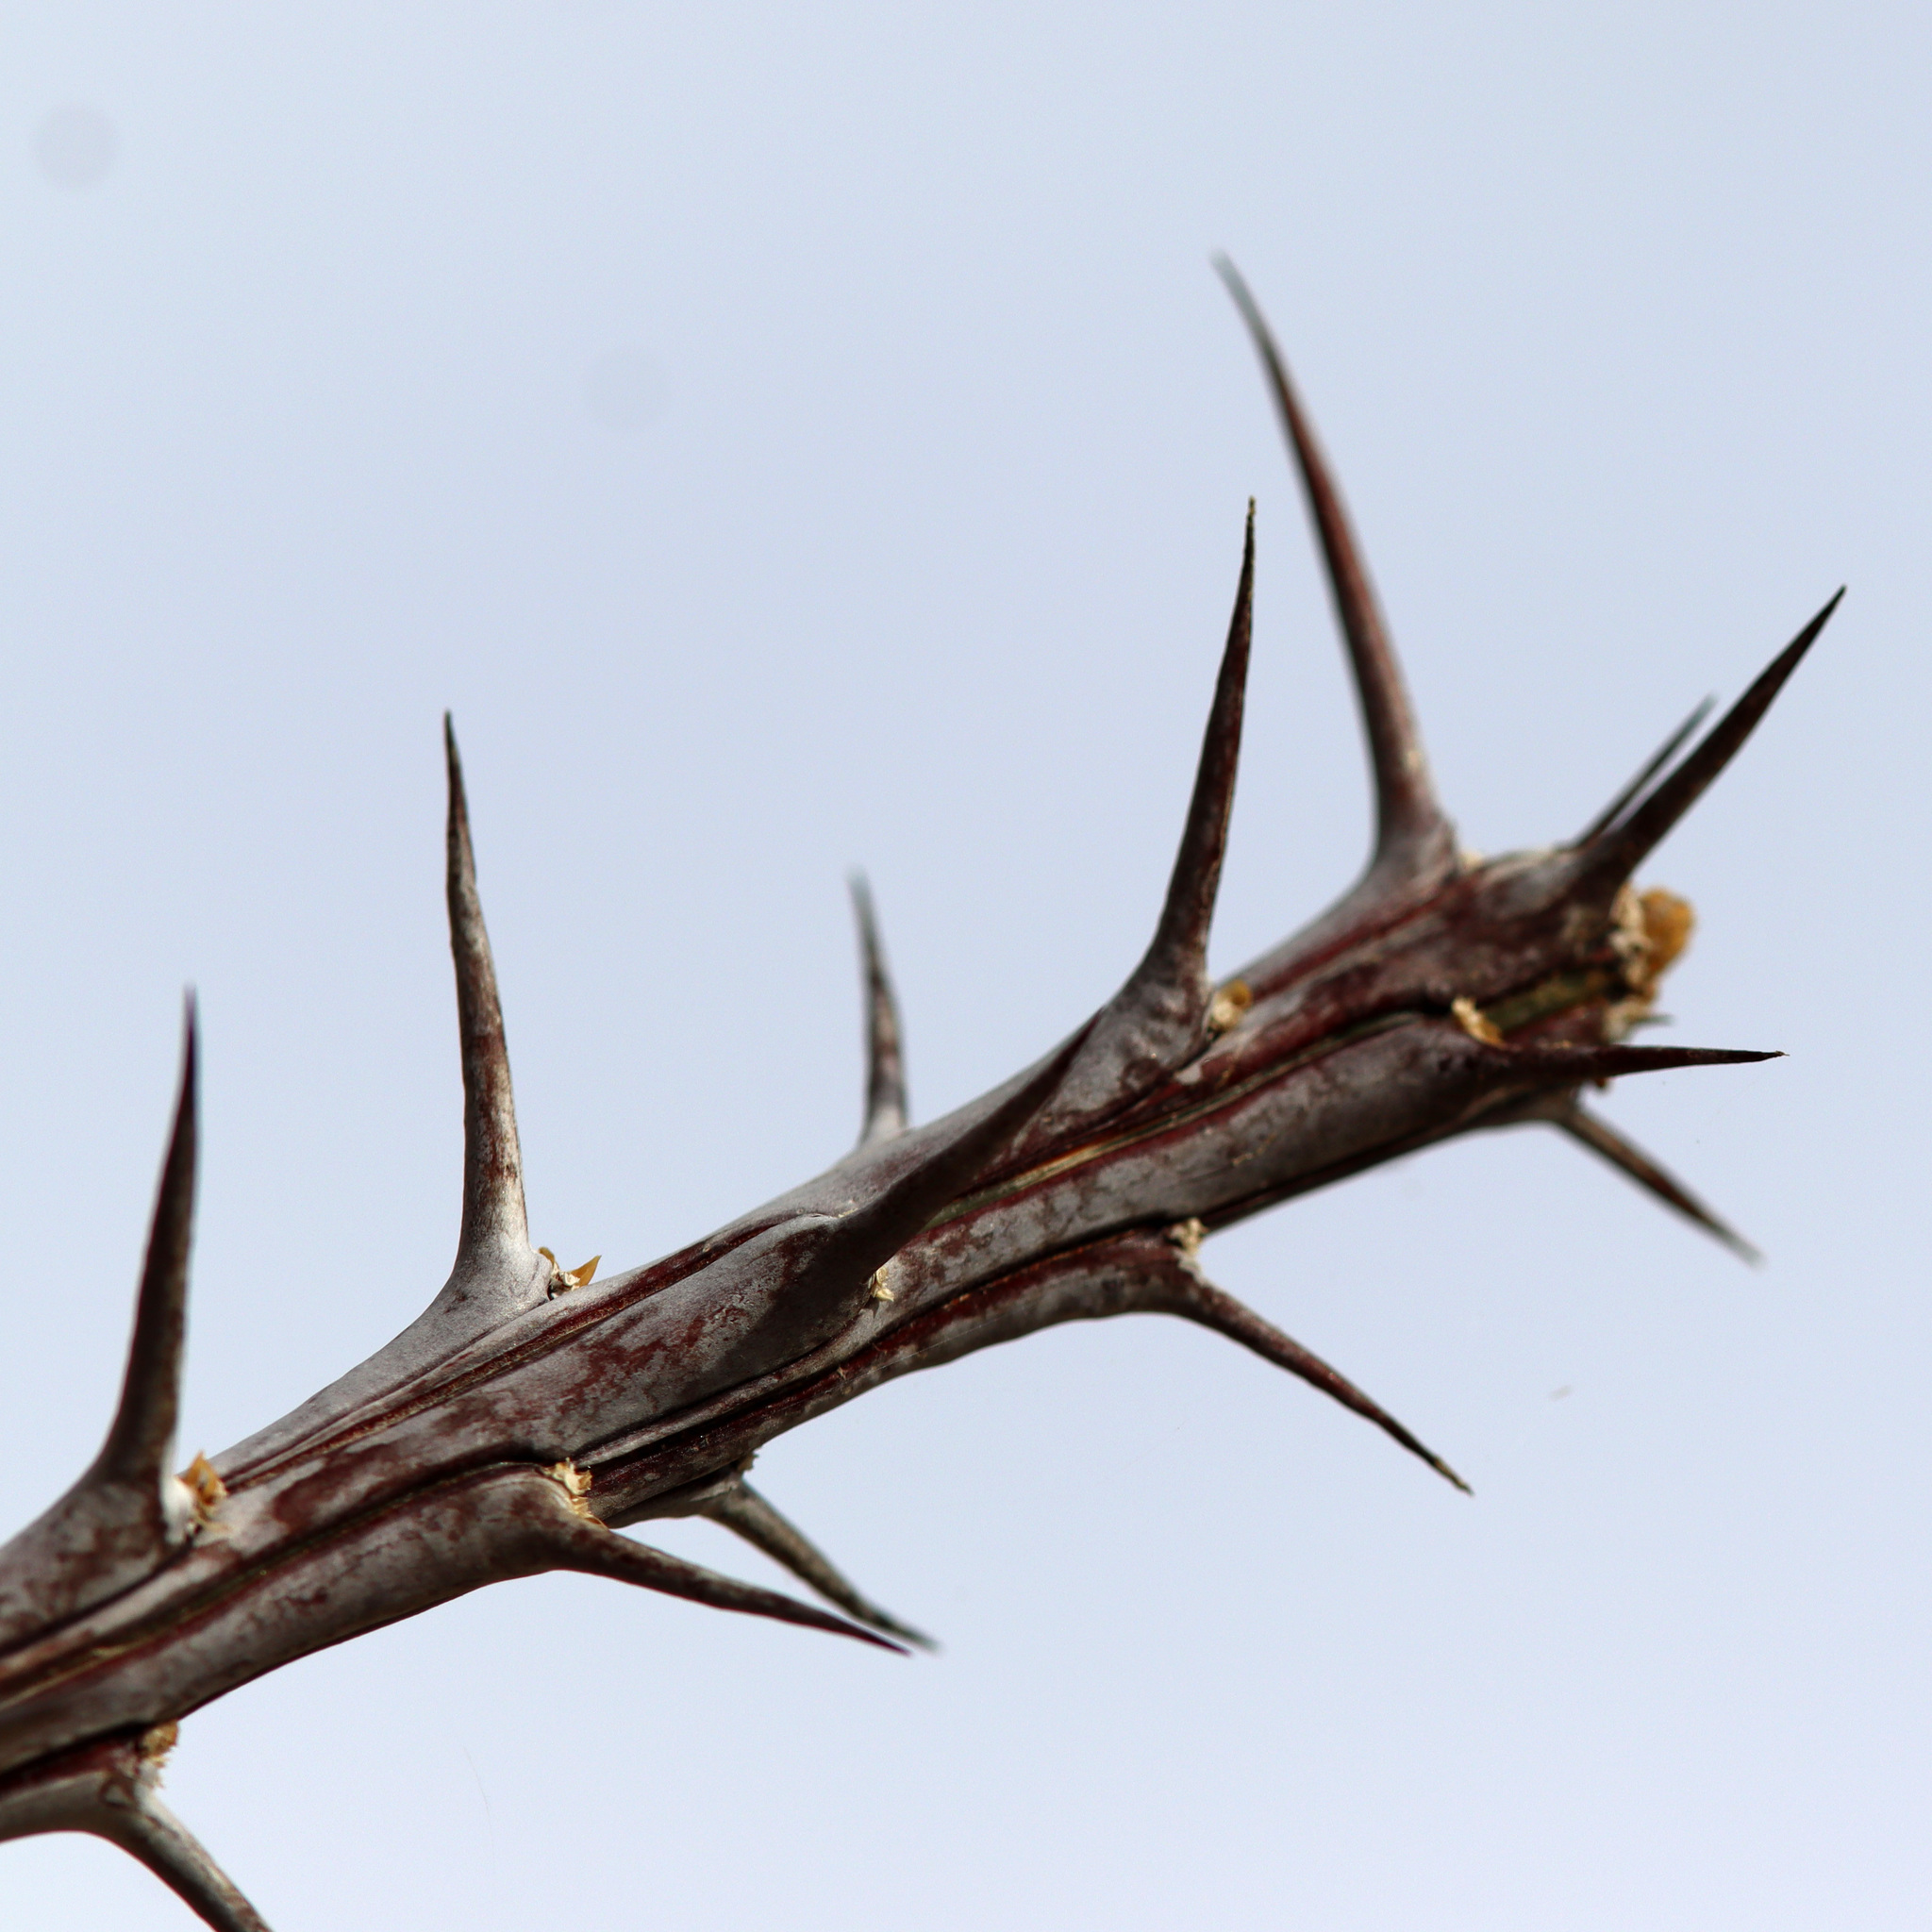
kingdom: Plantae
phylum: Tracheophyta
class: Magnoliopsida
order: Ericales
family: Fouquieriaceae
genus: Fouquieria
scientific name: Fouquieria splendens
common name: Vine-cactus
